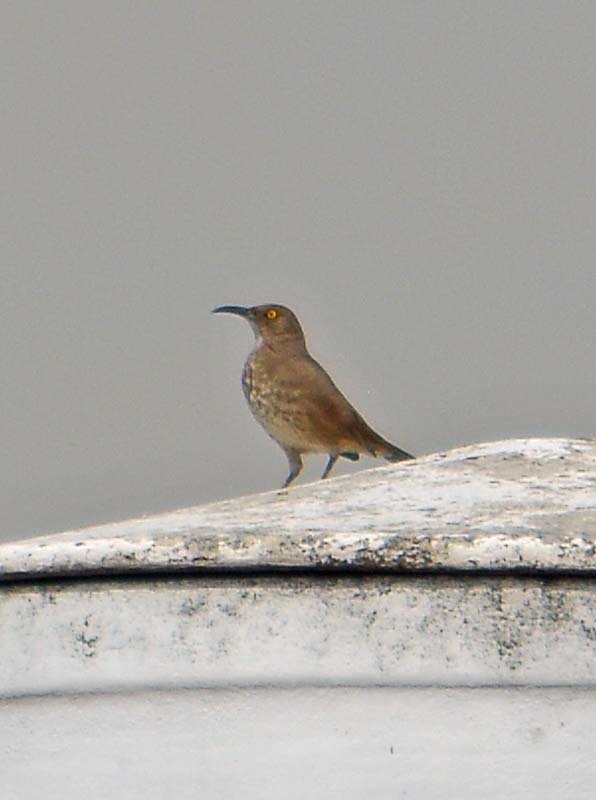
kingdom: Animalia
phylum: Chordata
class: Aves
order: Passeriformes
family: Mimidae
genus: Toxostoma
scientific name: Toxostoma curvirostre
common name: Curve-billed thrasher
